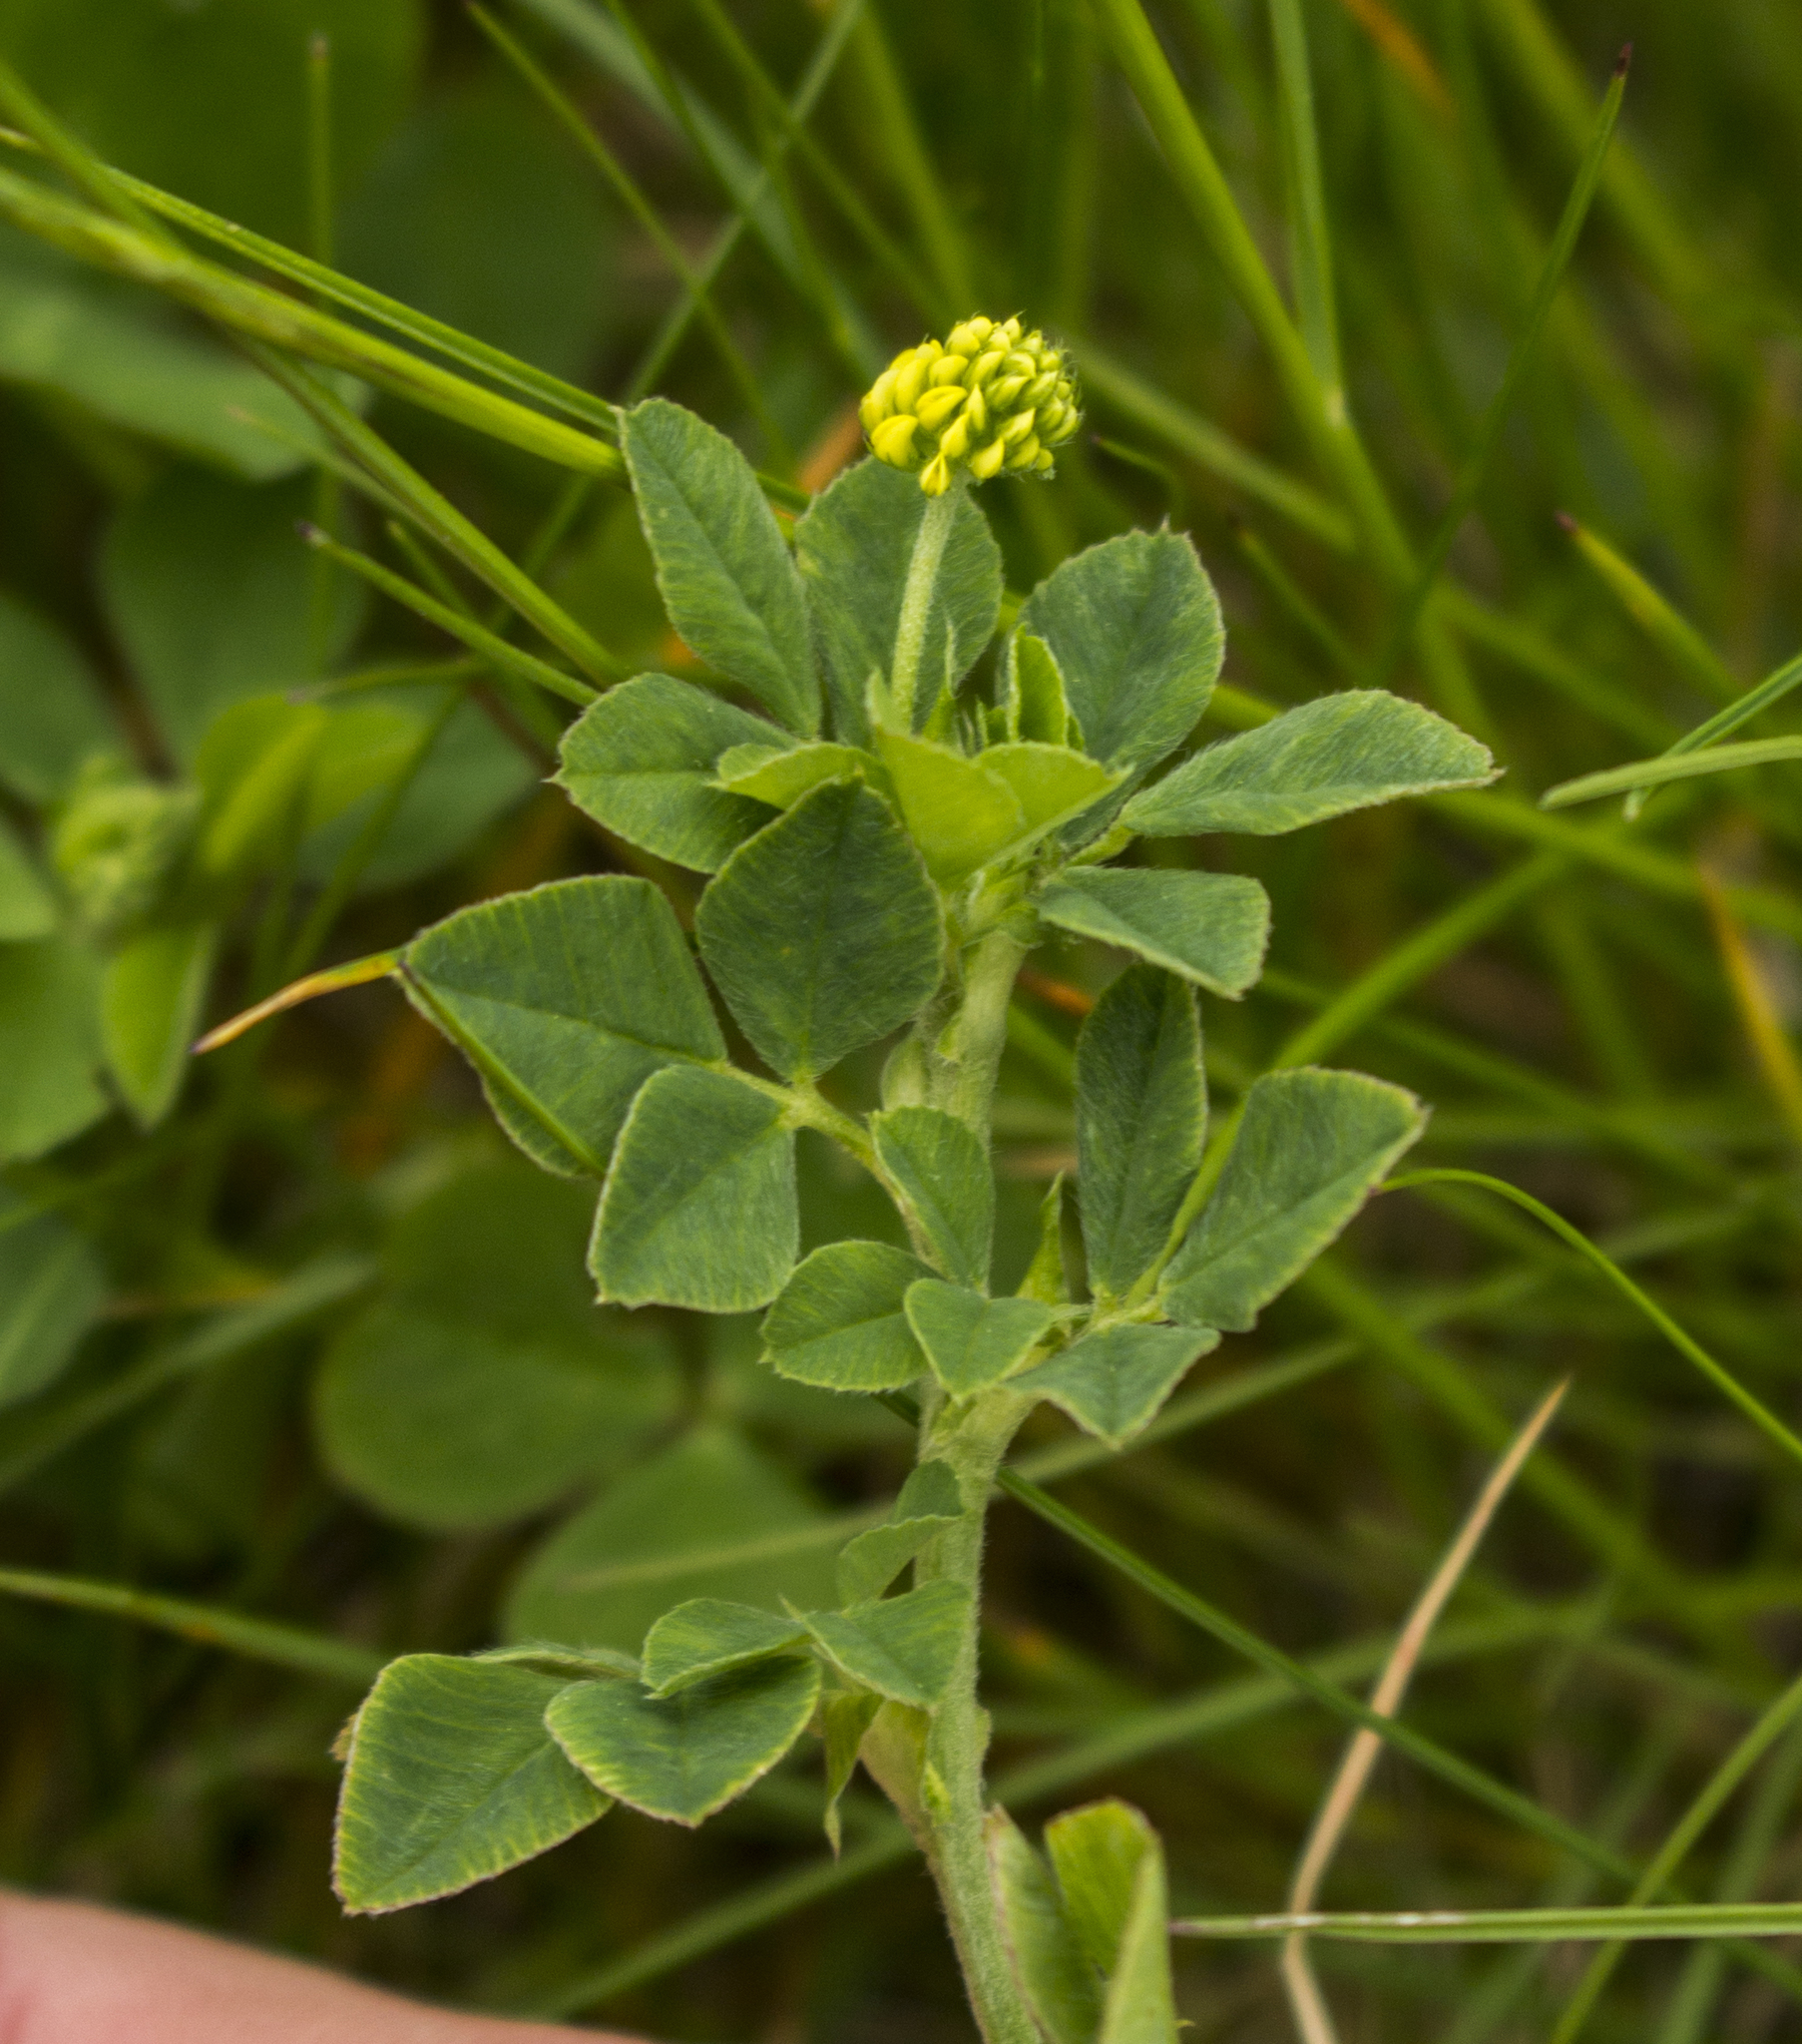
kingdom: Plantae
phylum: Tracheophyta
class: Magnoliopsida
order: Fabales
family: Fabaceae
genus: Medicago
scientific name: Medicago lupulina
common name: Black medick
